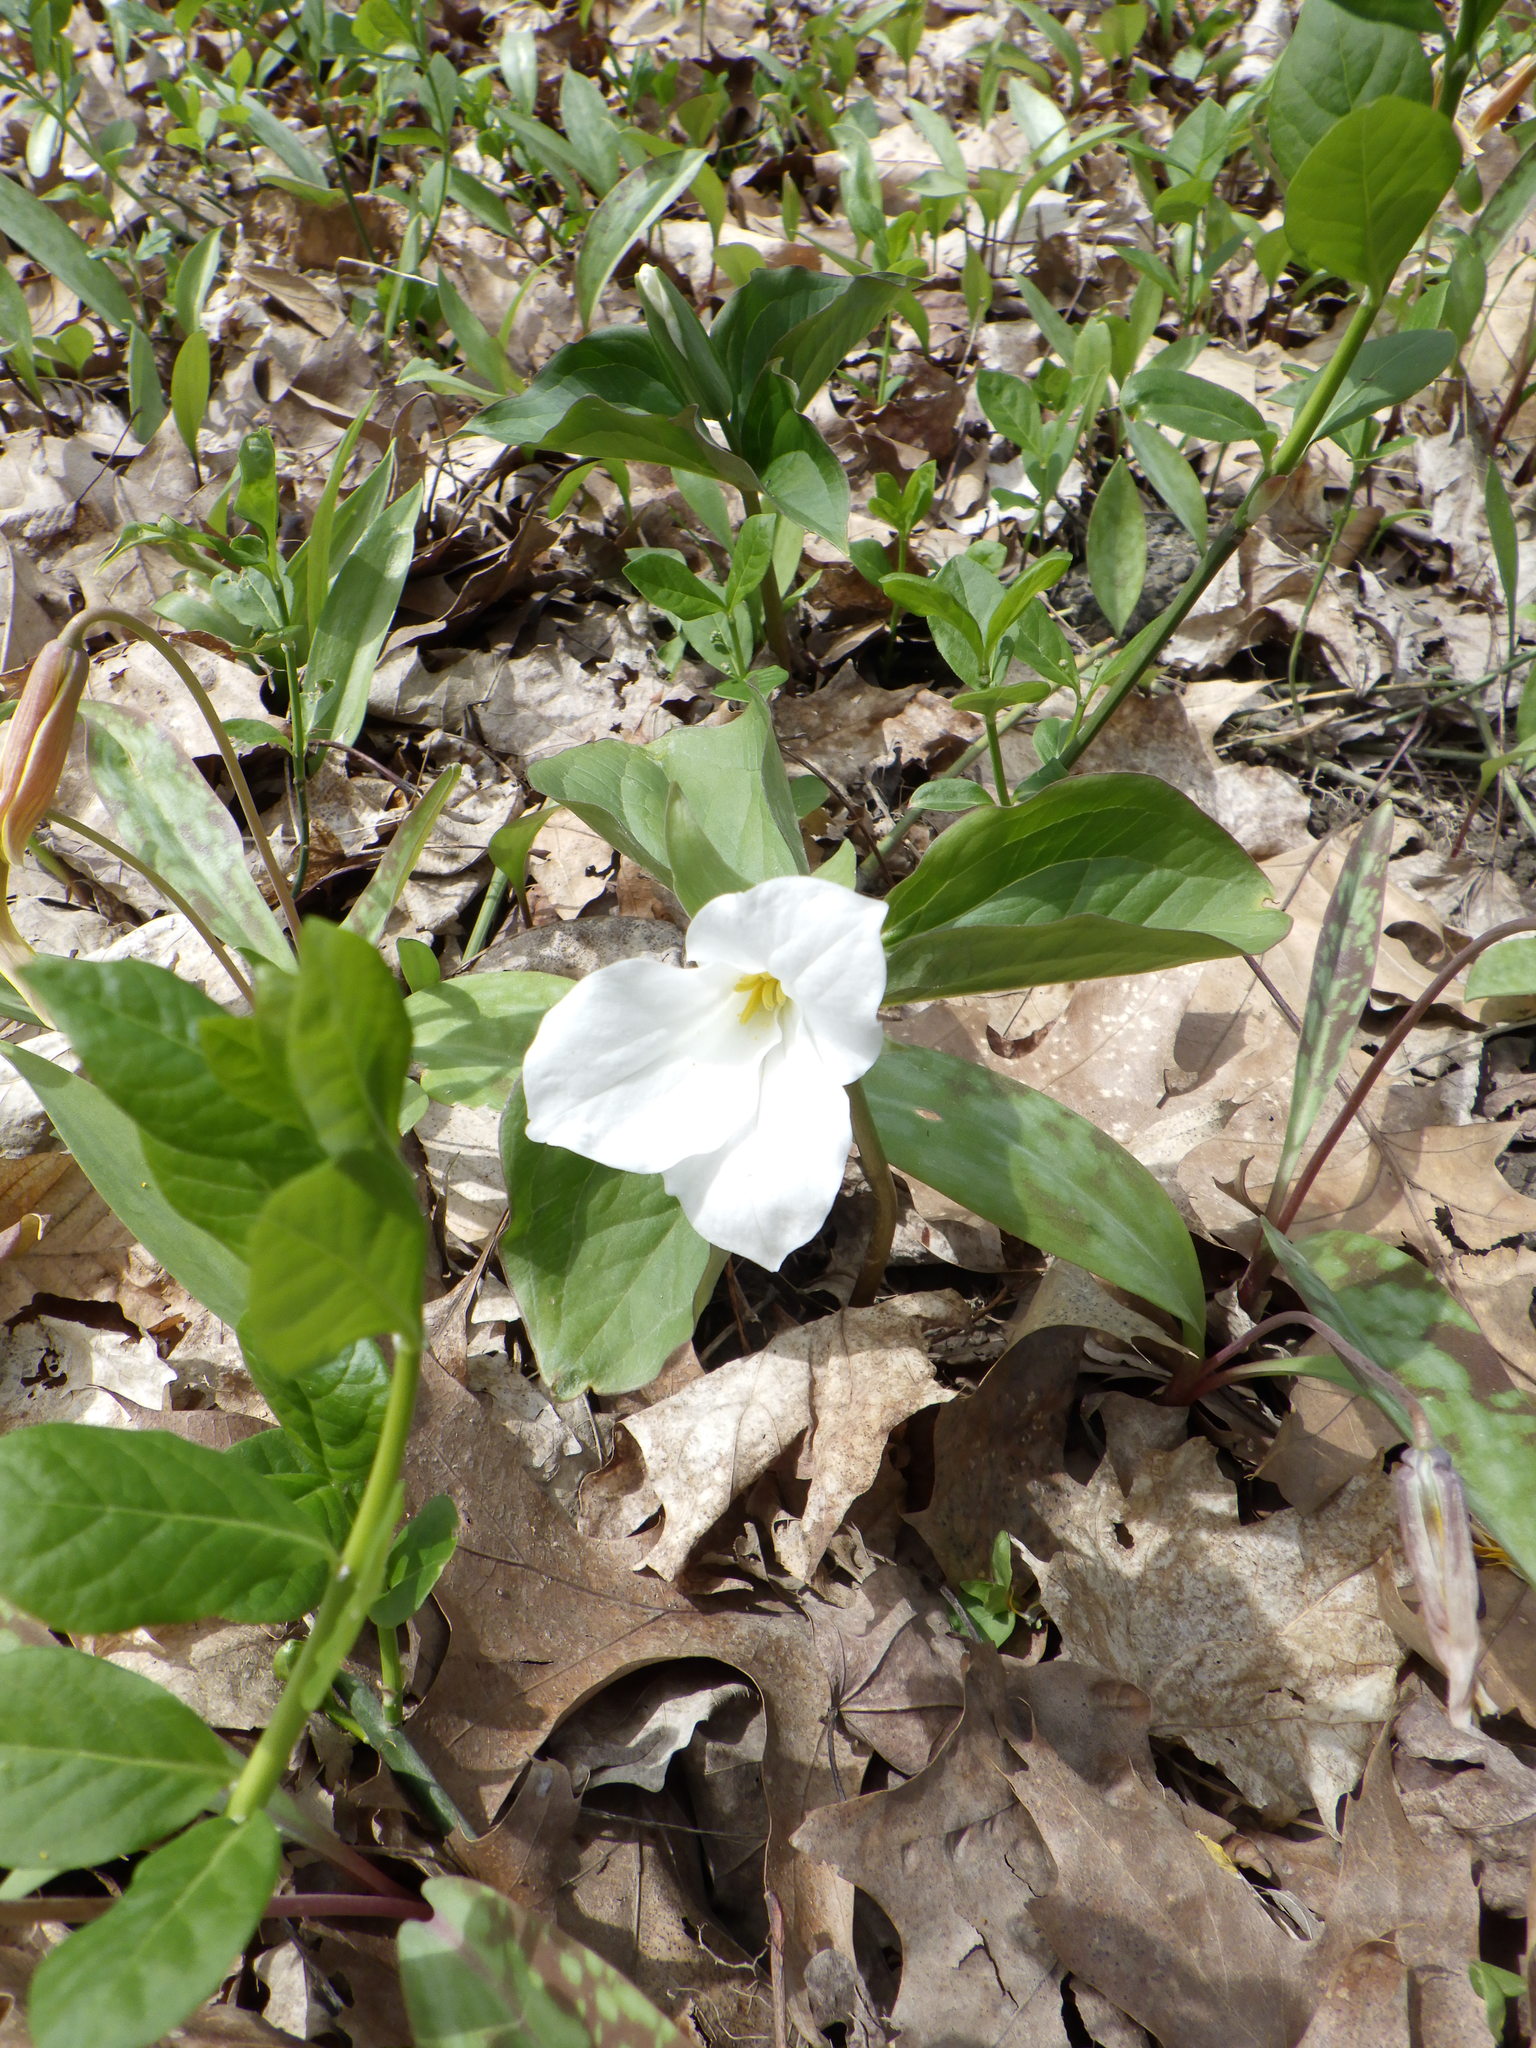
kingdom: Plantae
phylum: Tracheophyta
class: Liliopsida
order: Liliales
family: Melanthiaceae
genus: Trillium
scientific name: Trillium grandiflorum
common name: Great white trillium
